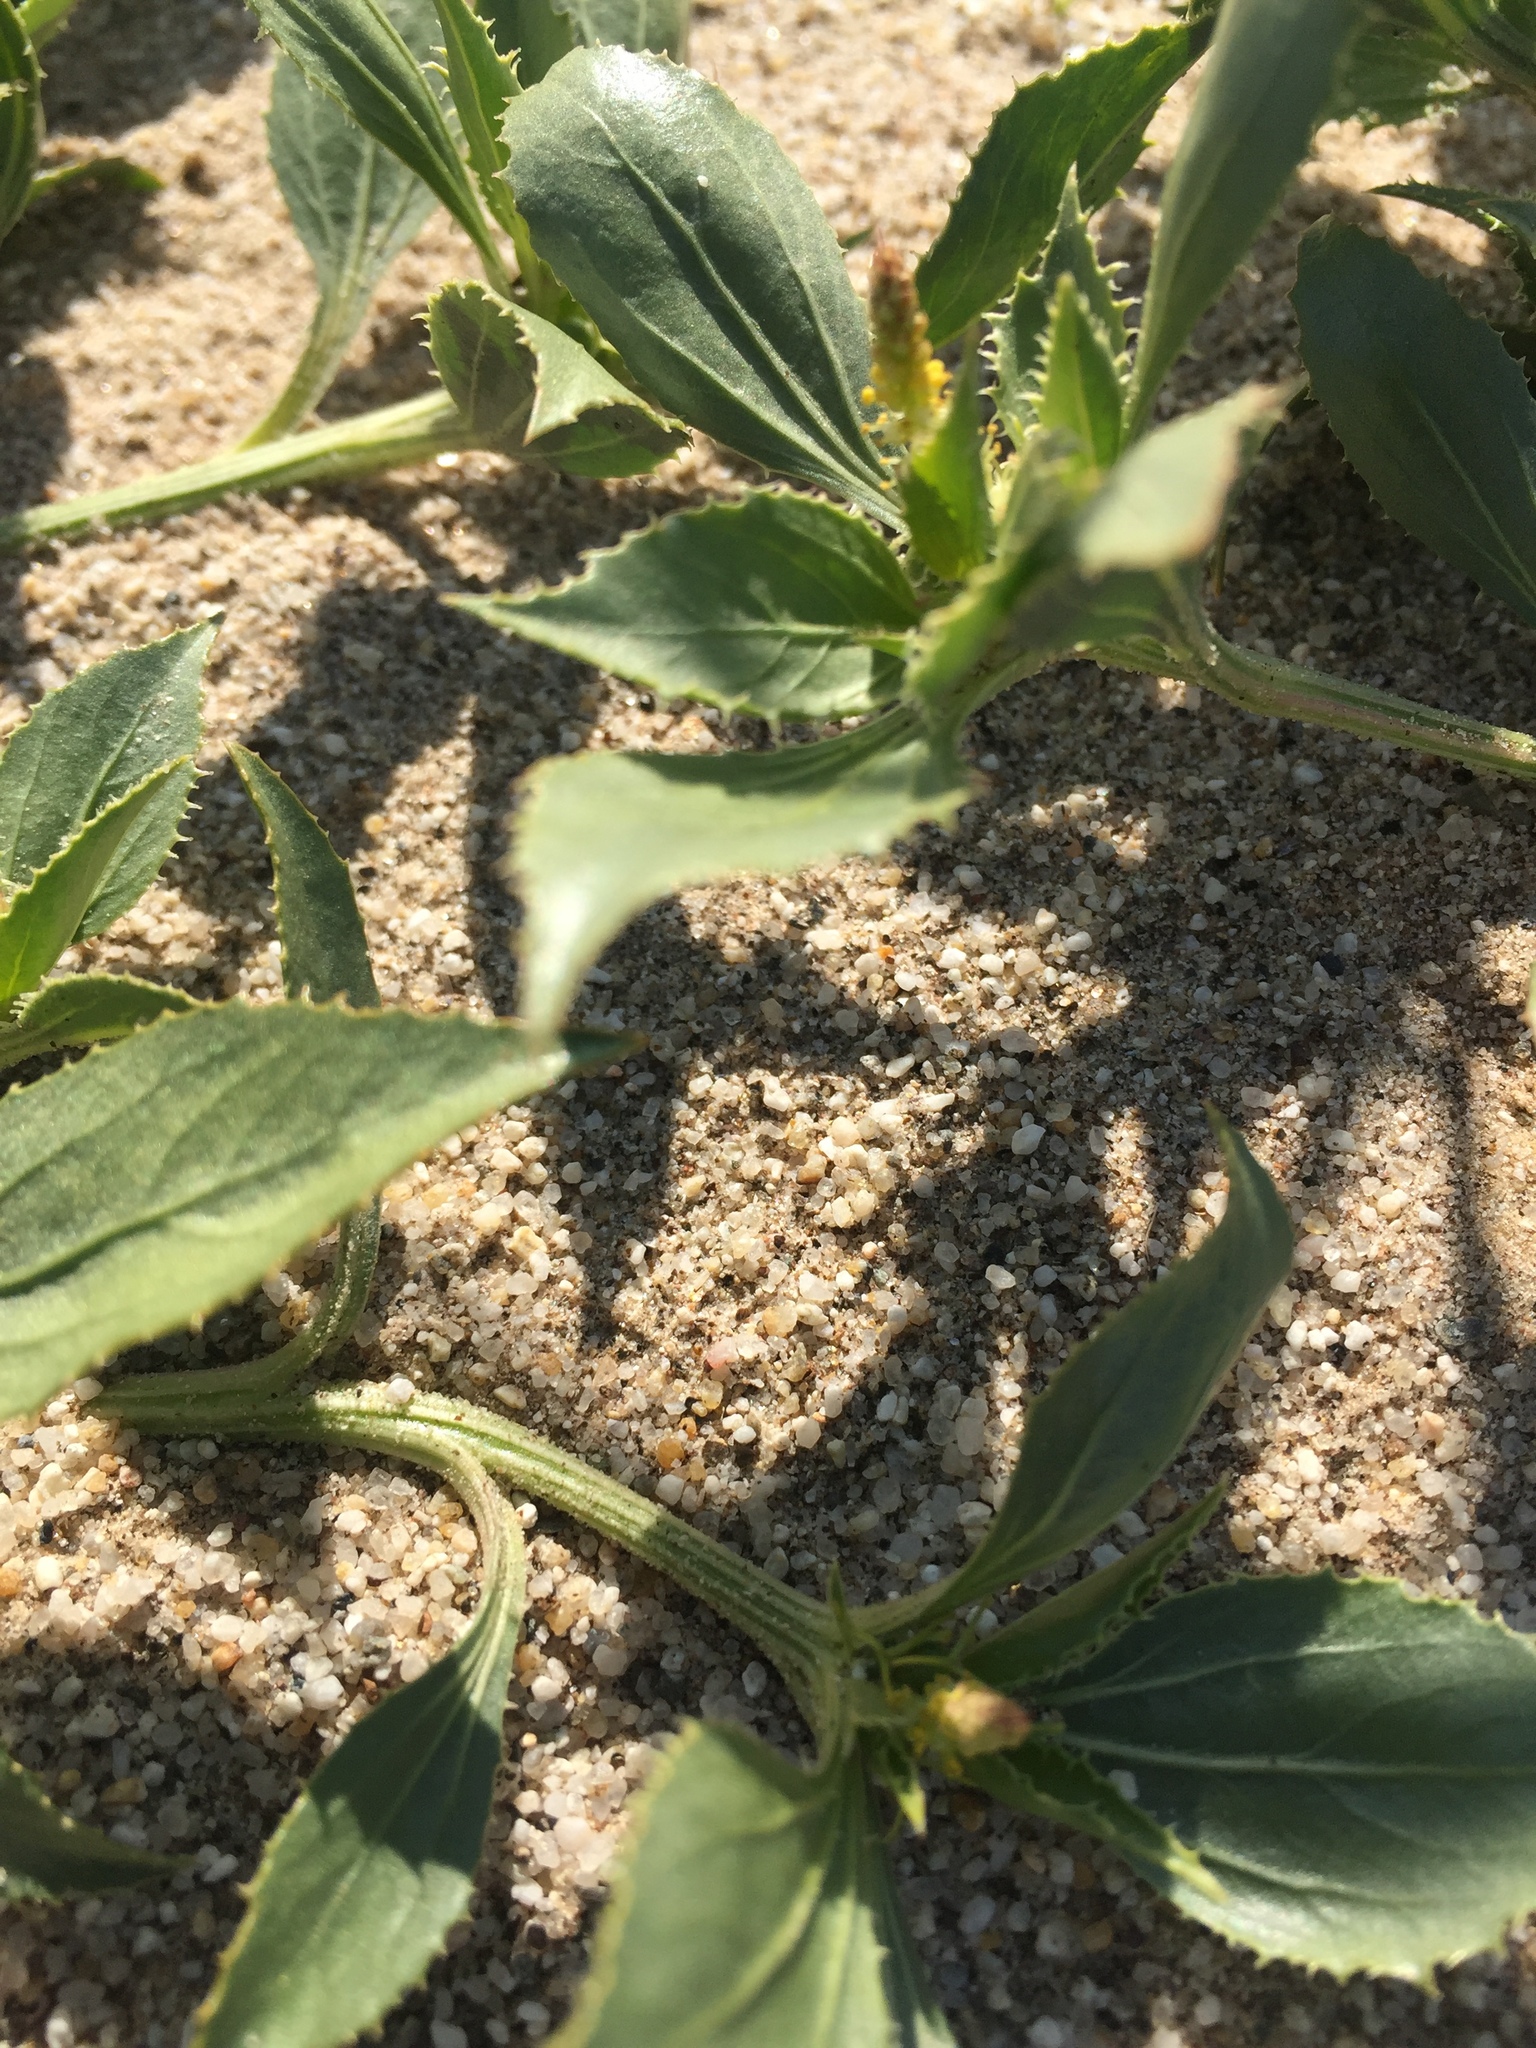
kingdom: Plantae
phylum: Tracheophyta
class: Magnoliopsida
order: Malpighiales
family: Euphorbiaceae
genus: Stillingia
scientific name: Stillingia spinulosa
